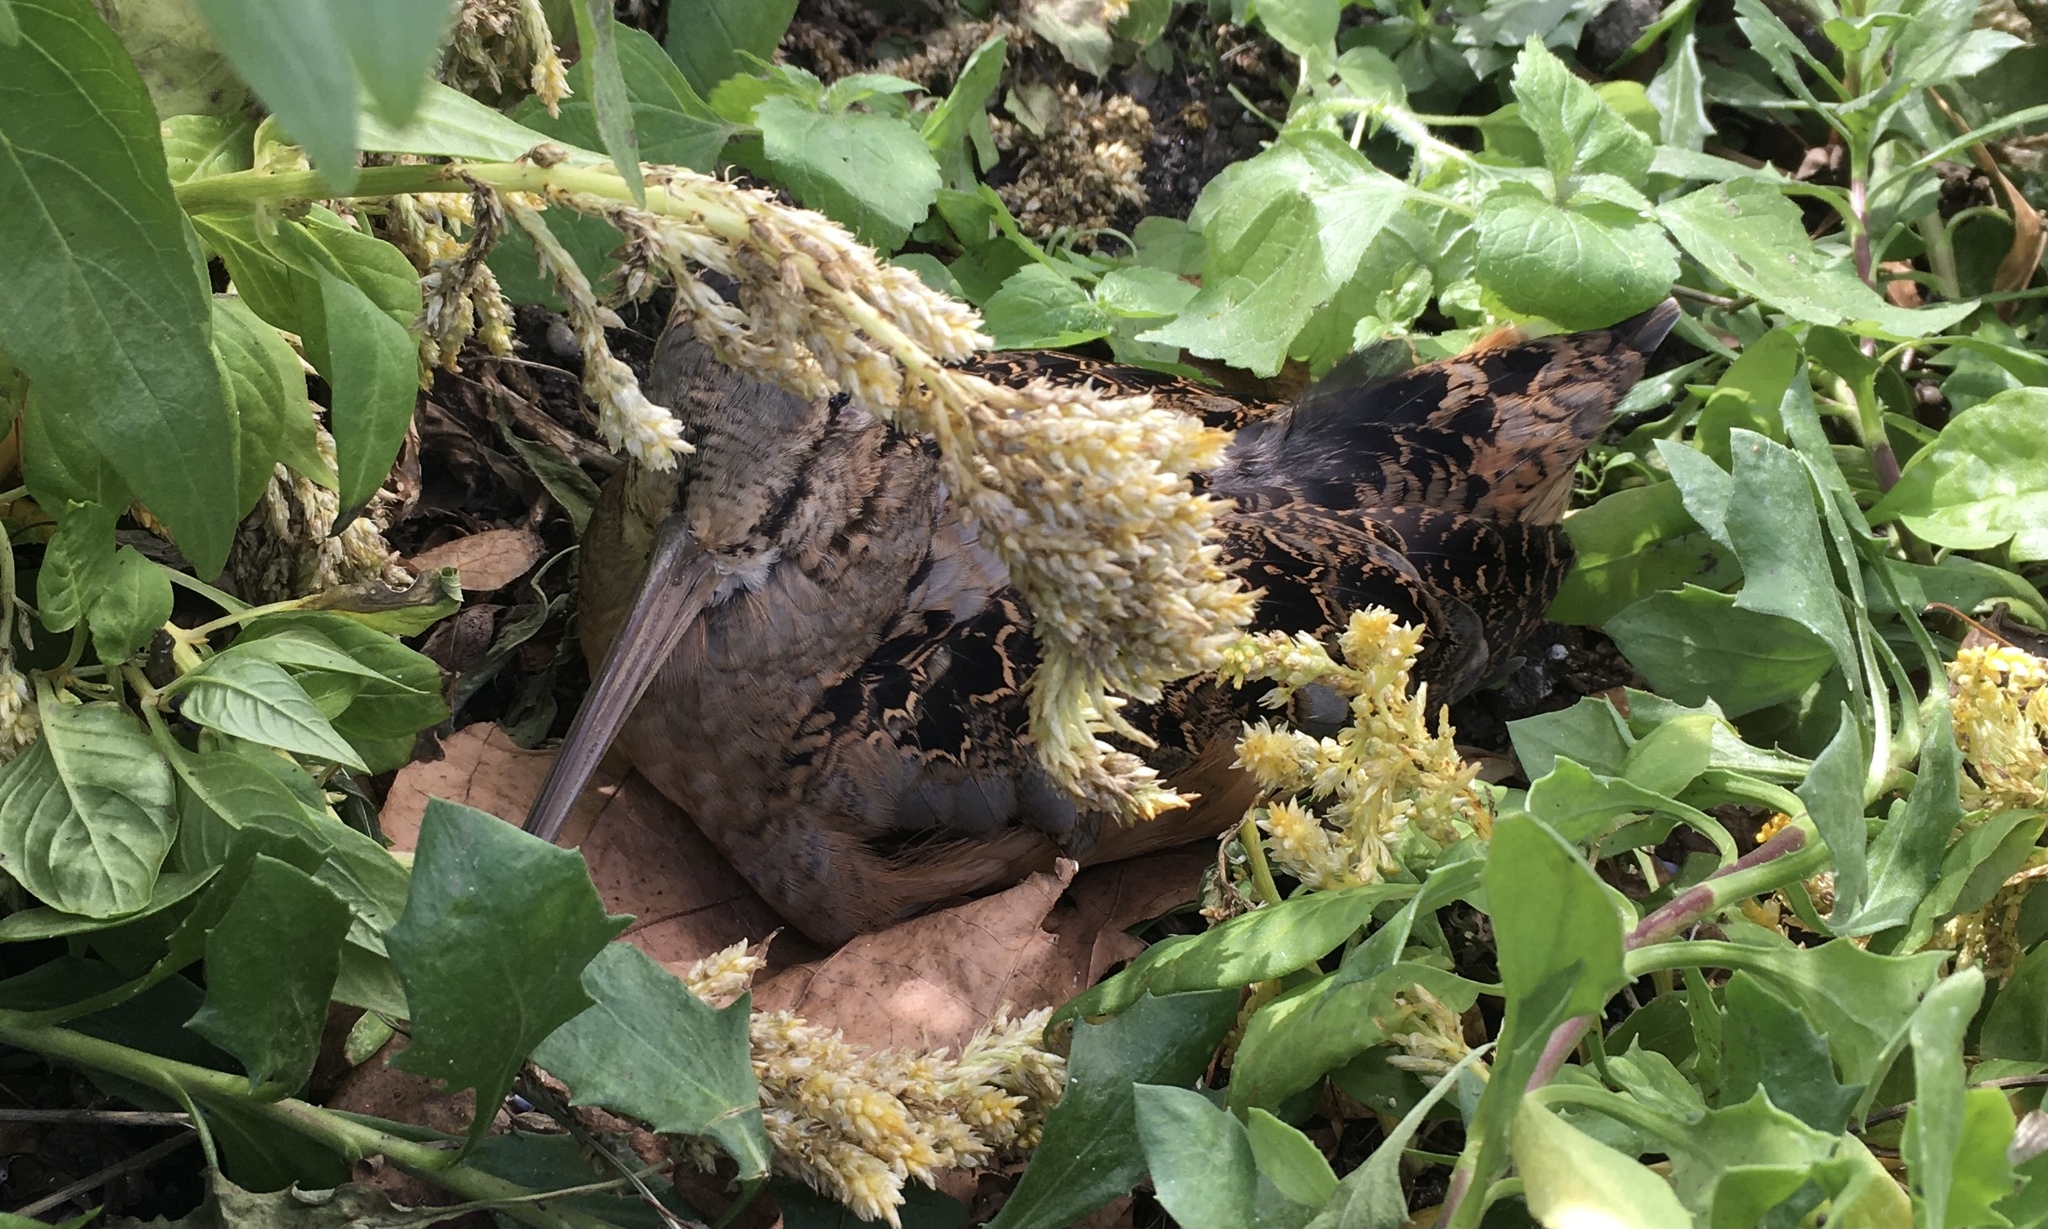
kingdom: Animalia
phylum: Chordata
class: Aves
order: Charadriiformes
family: Scolopacidae
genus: Scolopax
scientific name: Scolopax minor
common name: American woodcock
